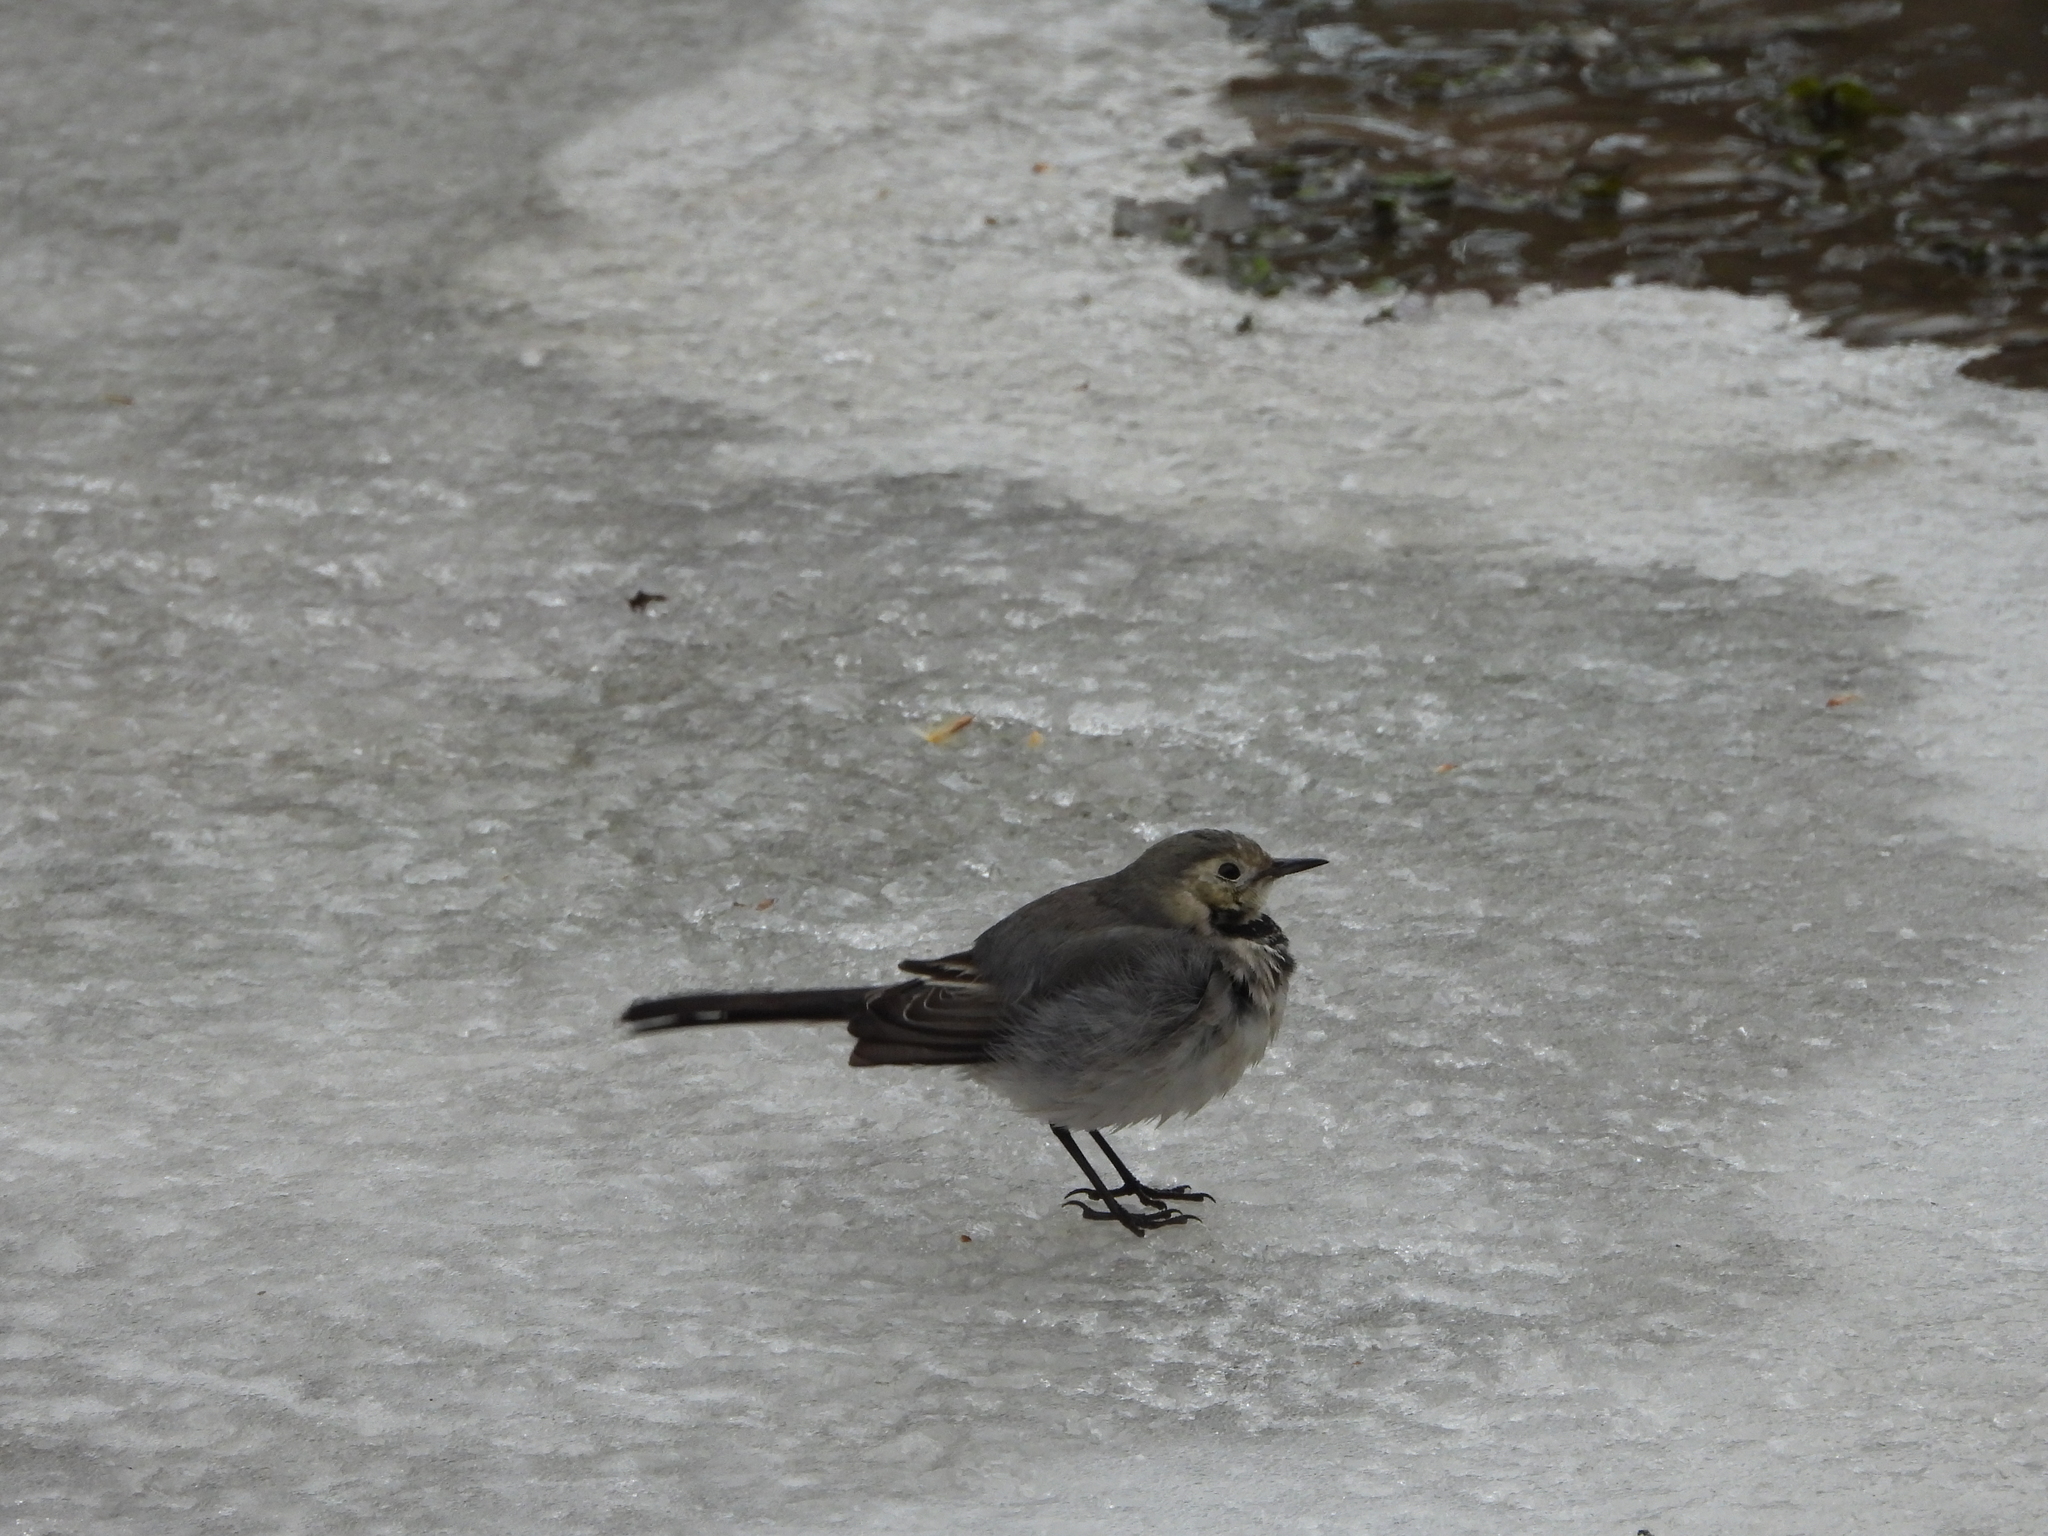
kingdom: Animalia
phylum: Chordata
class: Aves
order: Passeriformes
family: Motacillidae
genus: Motacilla
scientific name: Motacilla alba
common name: White wagtail
